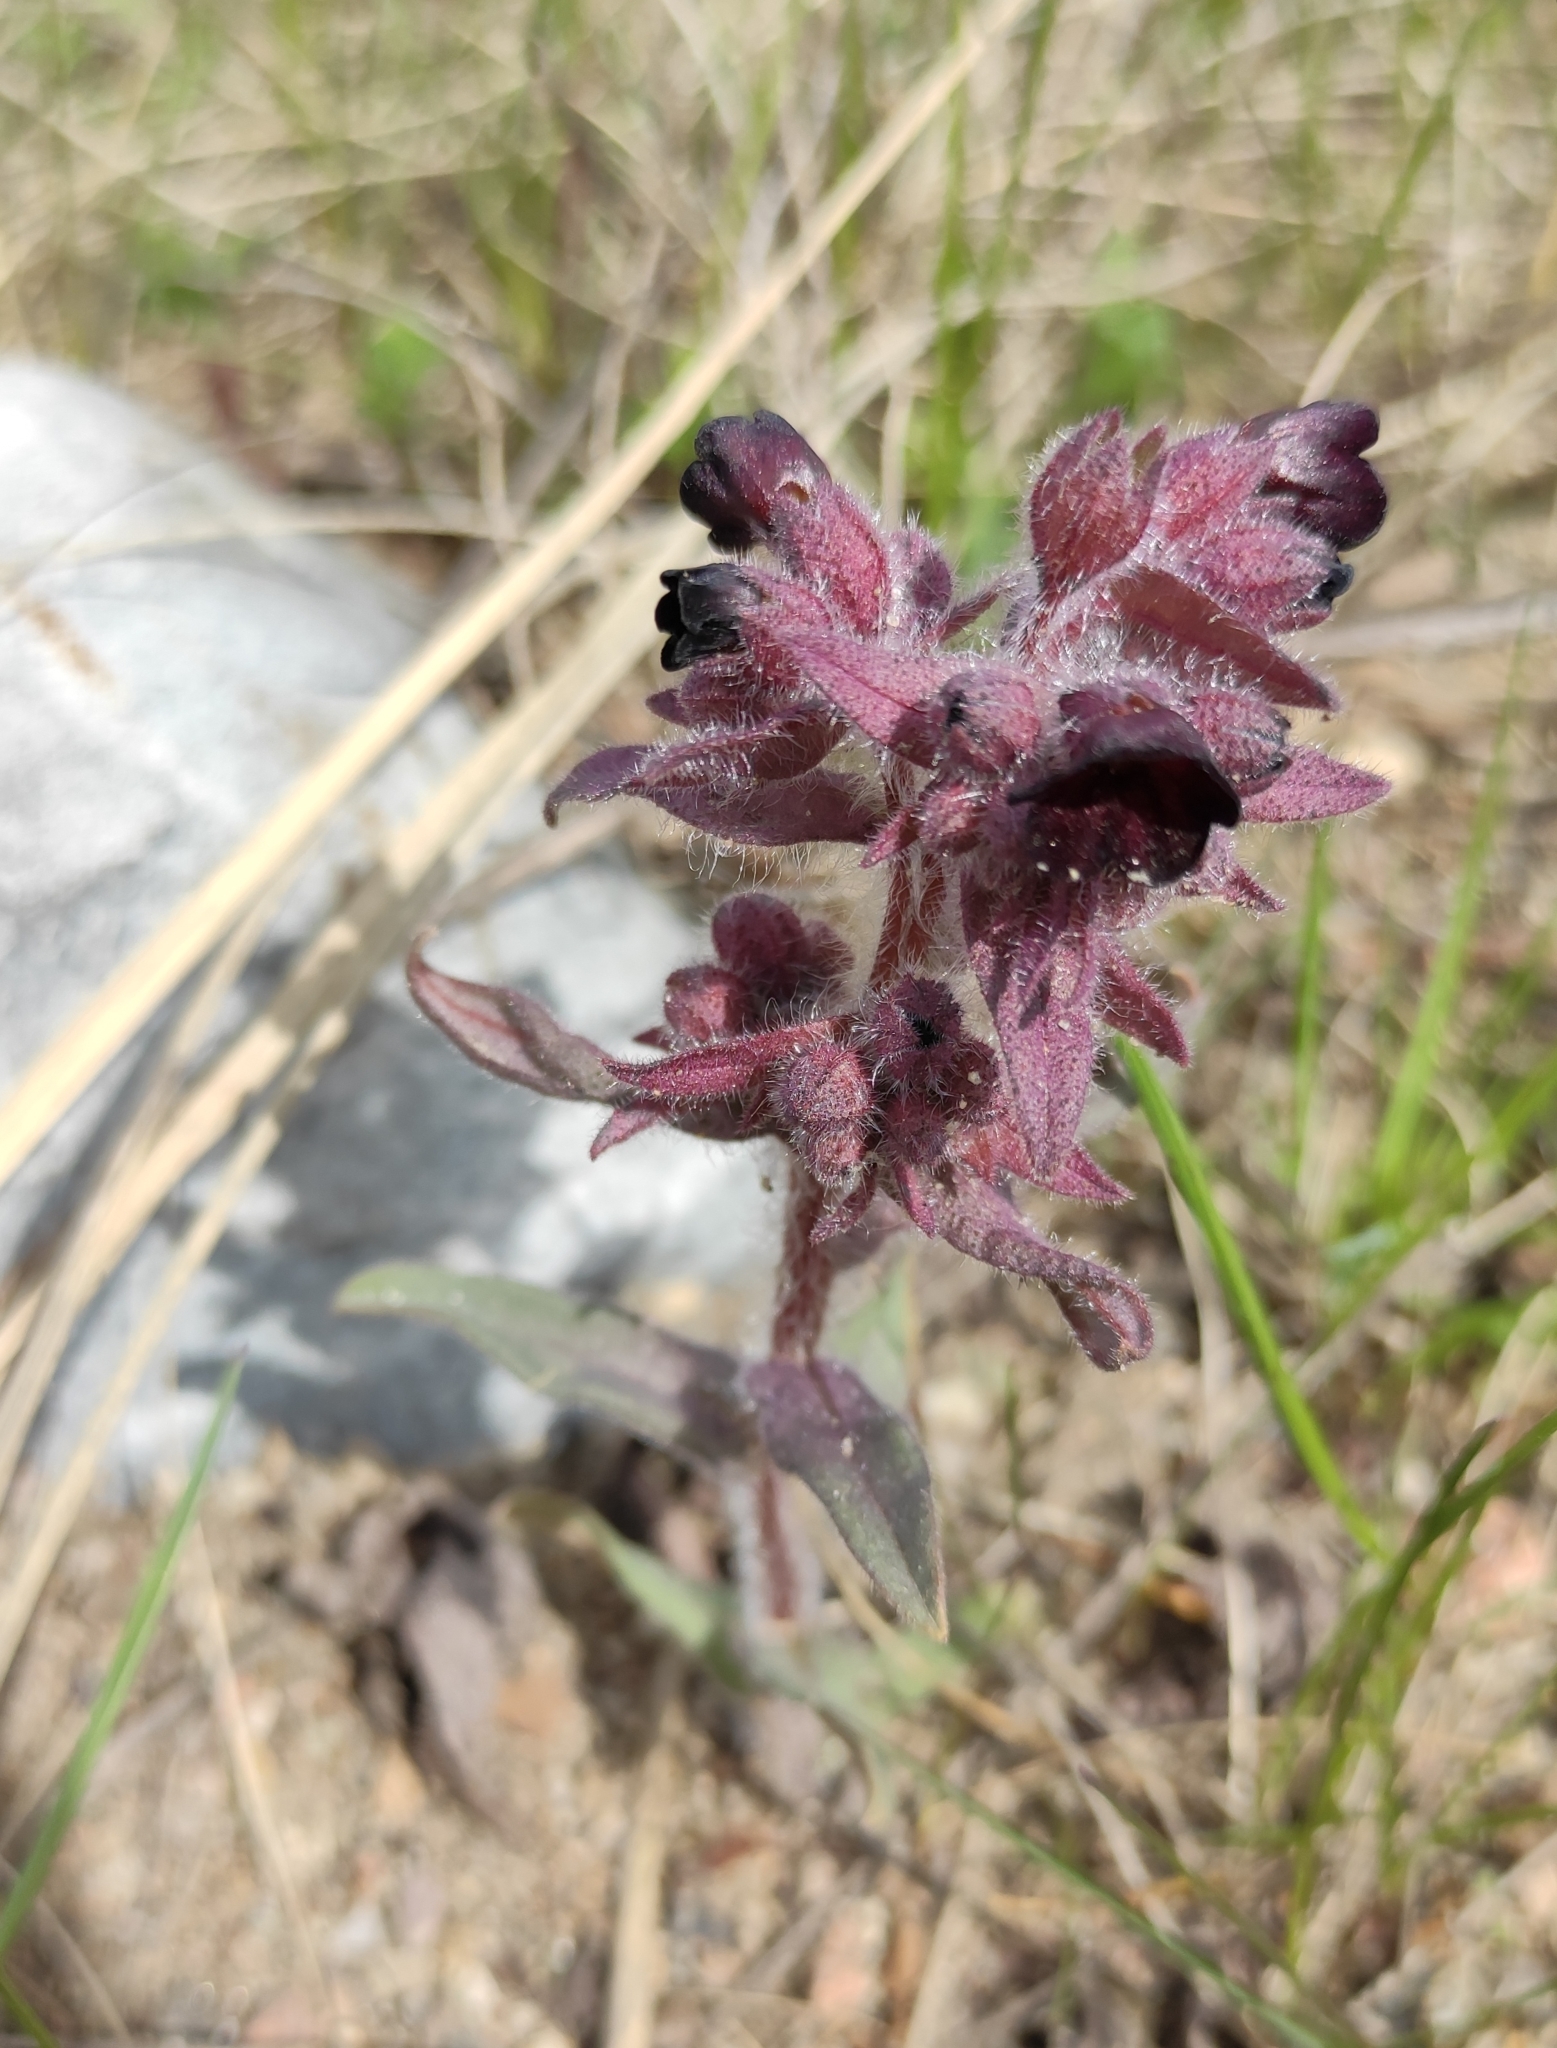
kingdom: Plantae
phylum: Tracheophyta
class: Magnoliopsida
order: Boraginales
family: Boraginaceae
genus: Nonea
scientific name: Nonea pulla
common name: Brown nonea
